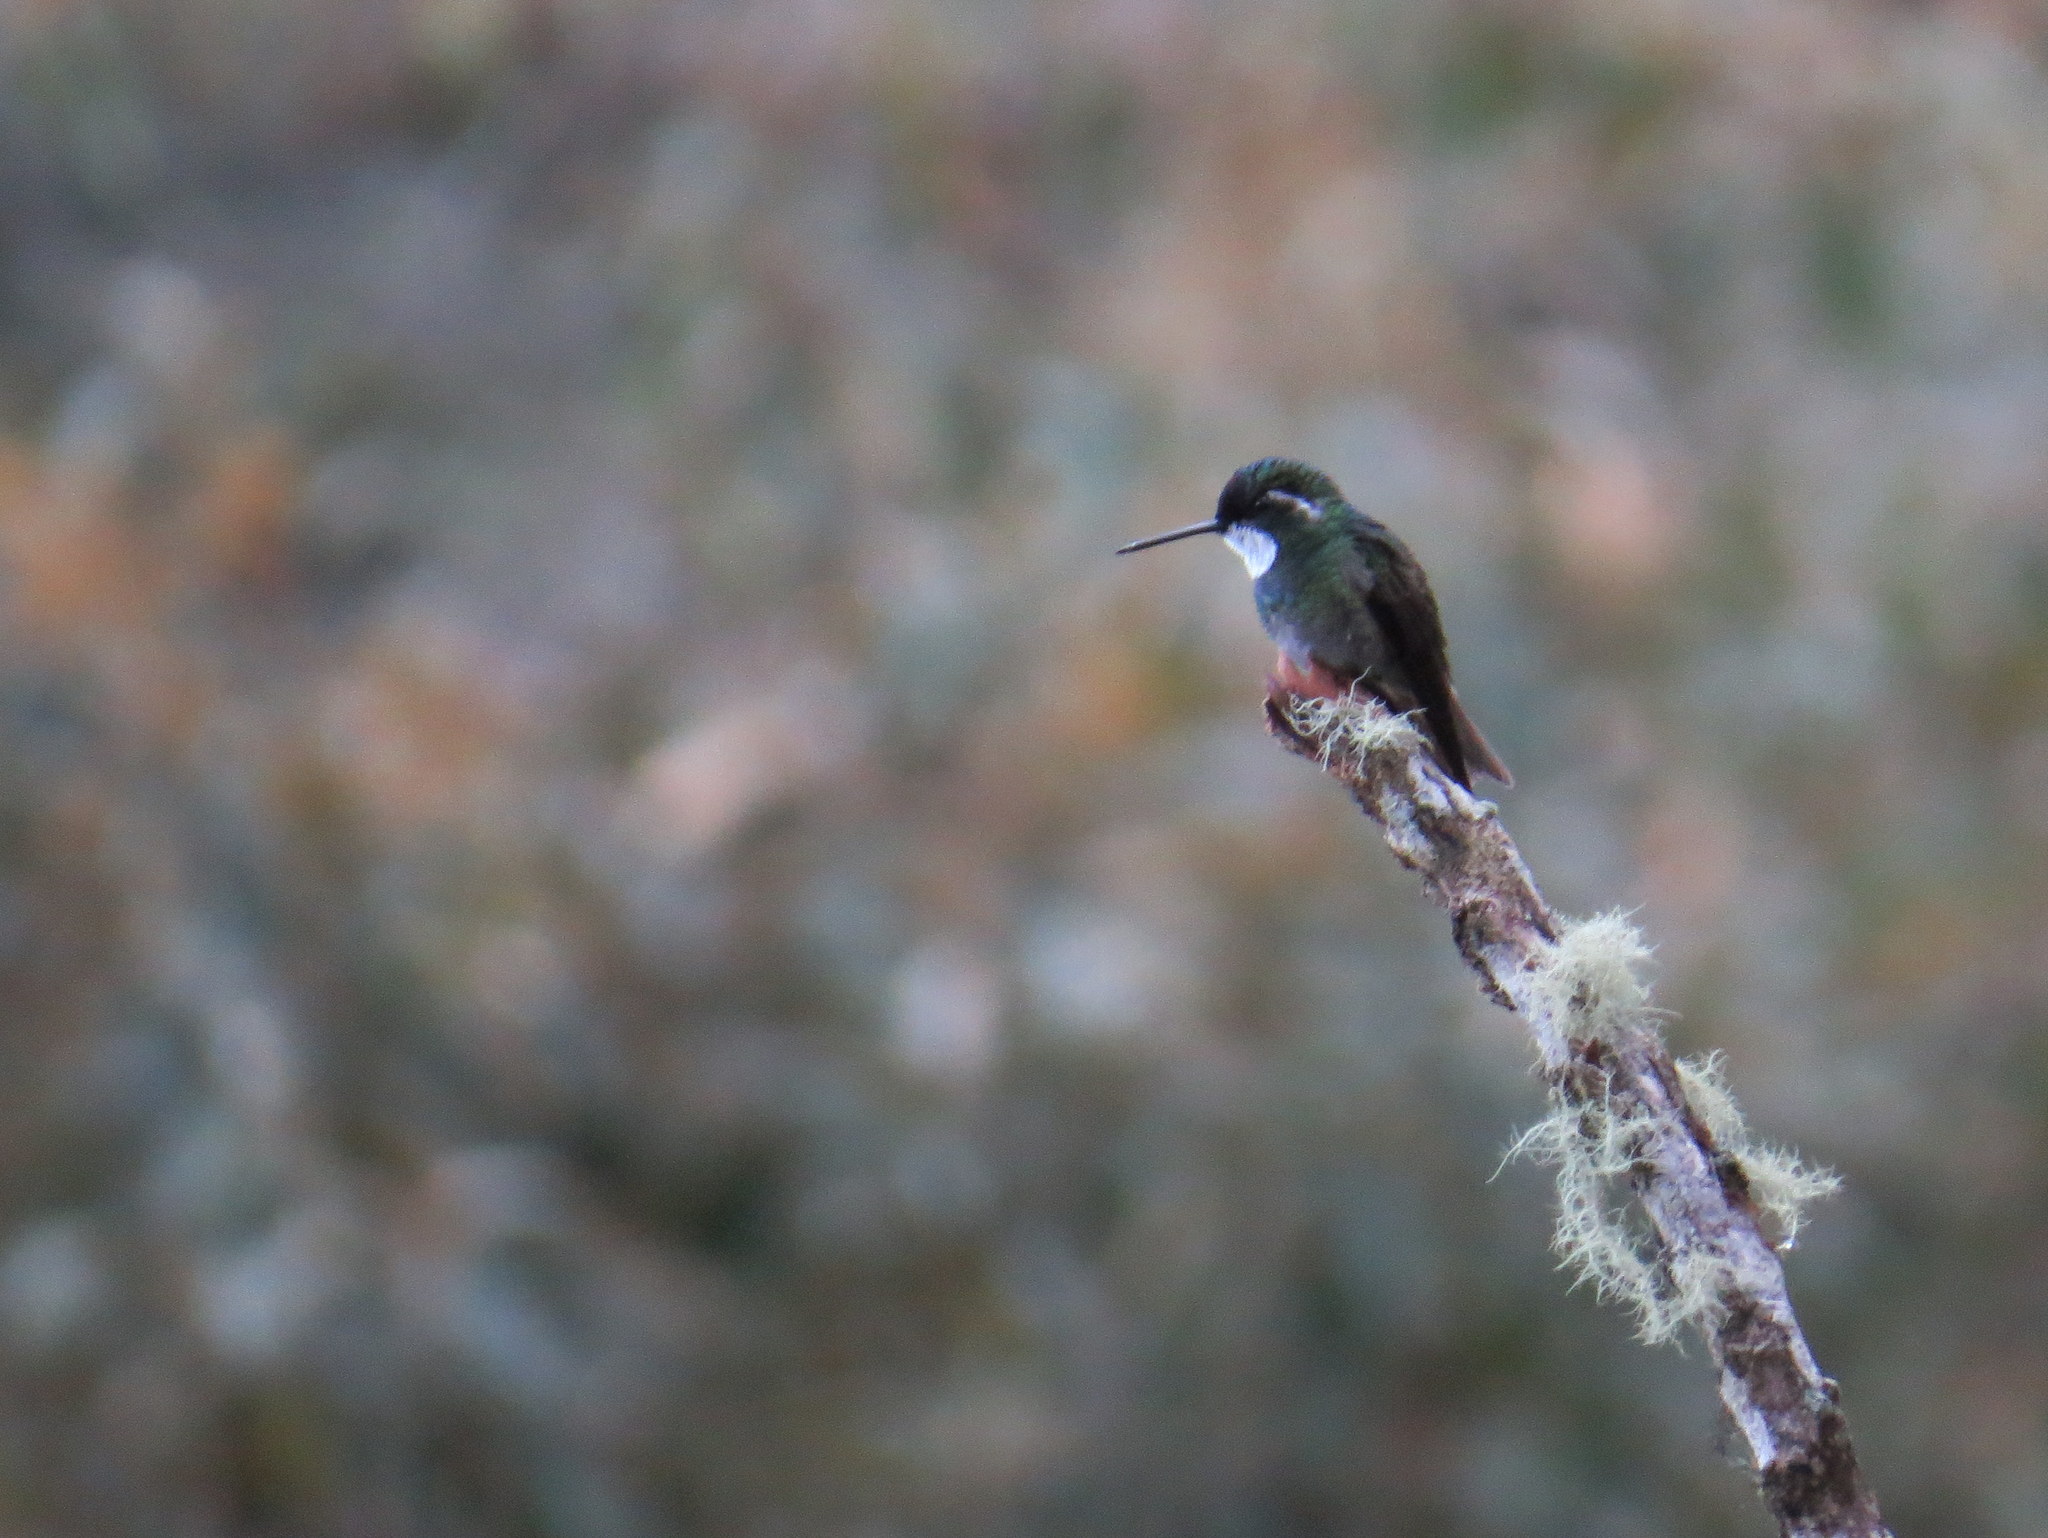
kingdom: Animalia
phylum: Chordata
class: Aves
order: Apodiformes
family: Trochilidae
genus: Lampornis
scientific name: Lampornis cinereicauda
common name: Grey-tailed mountaingem
